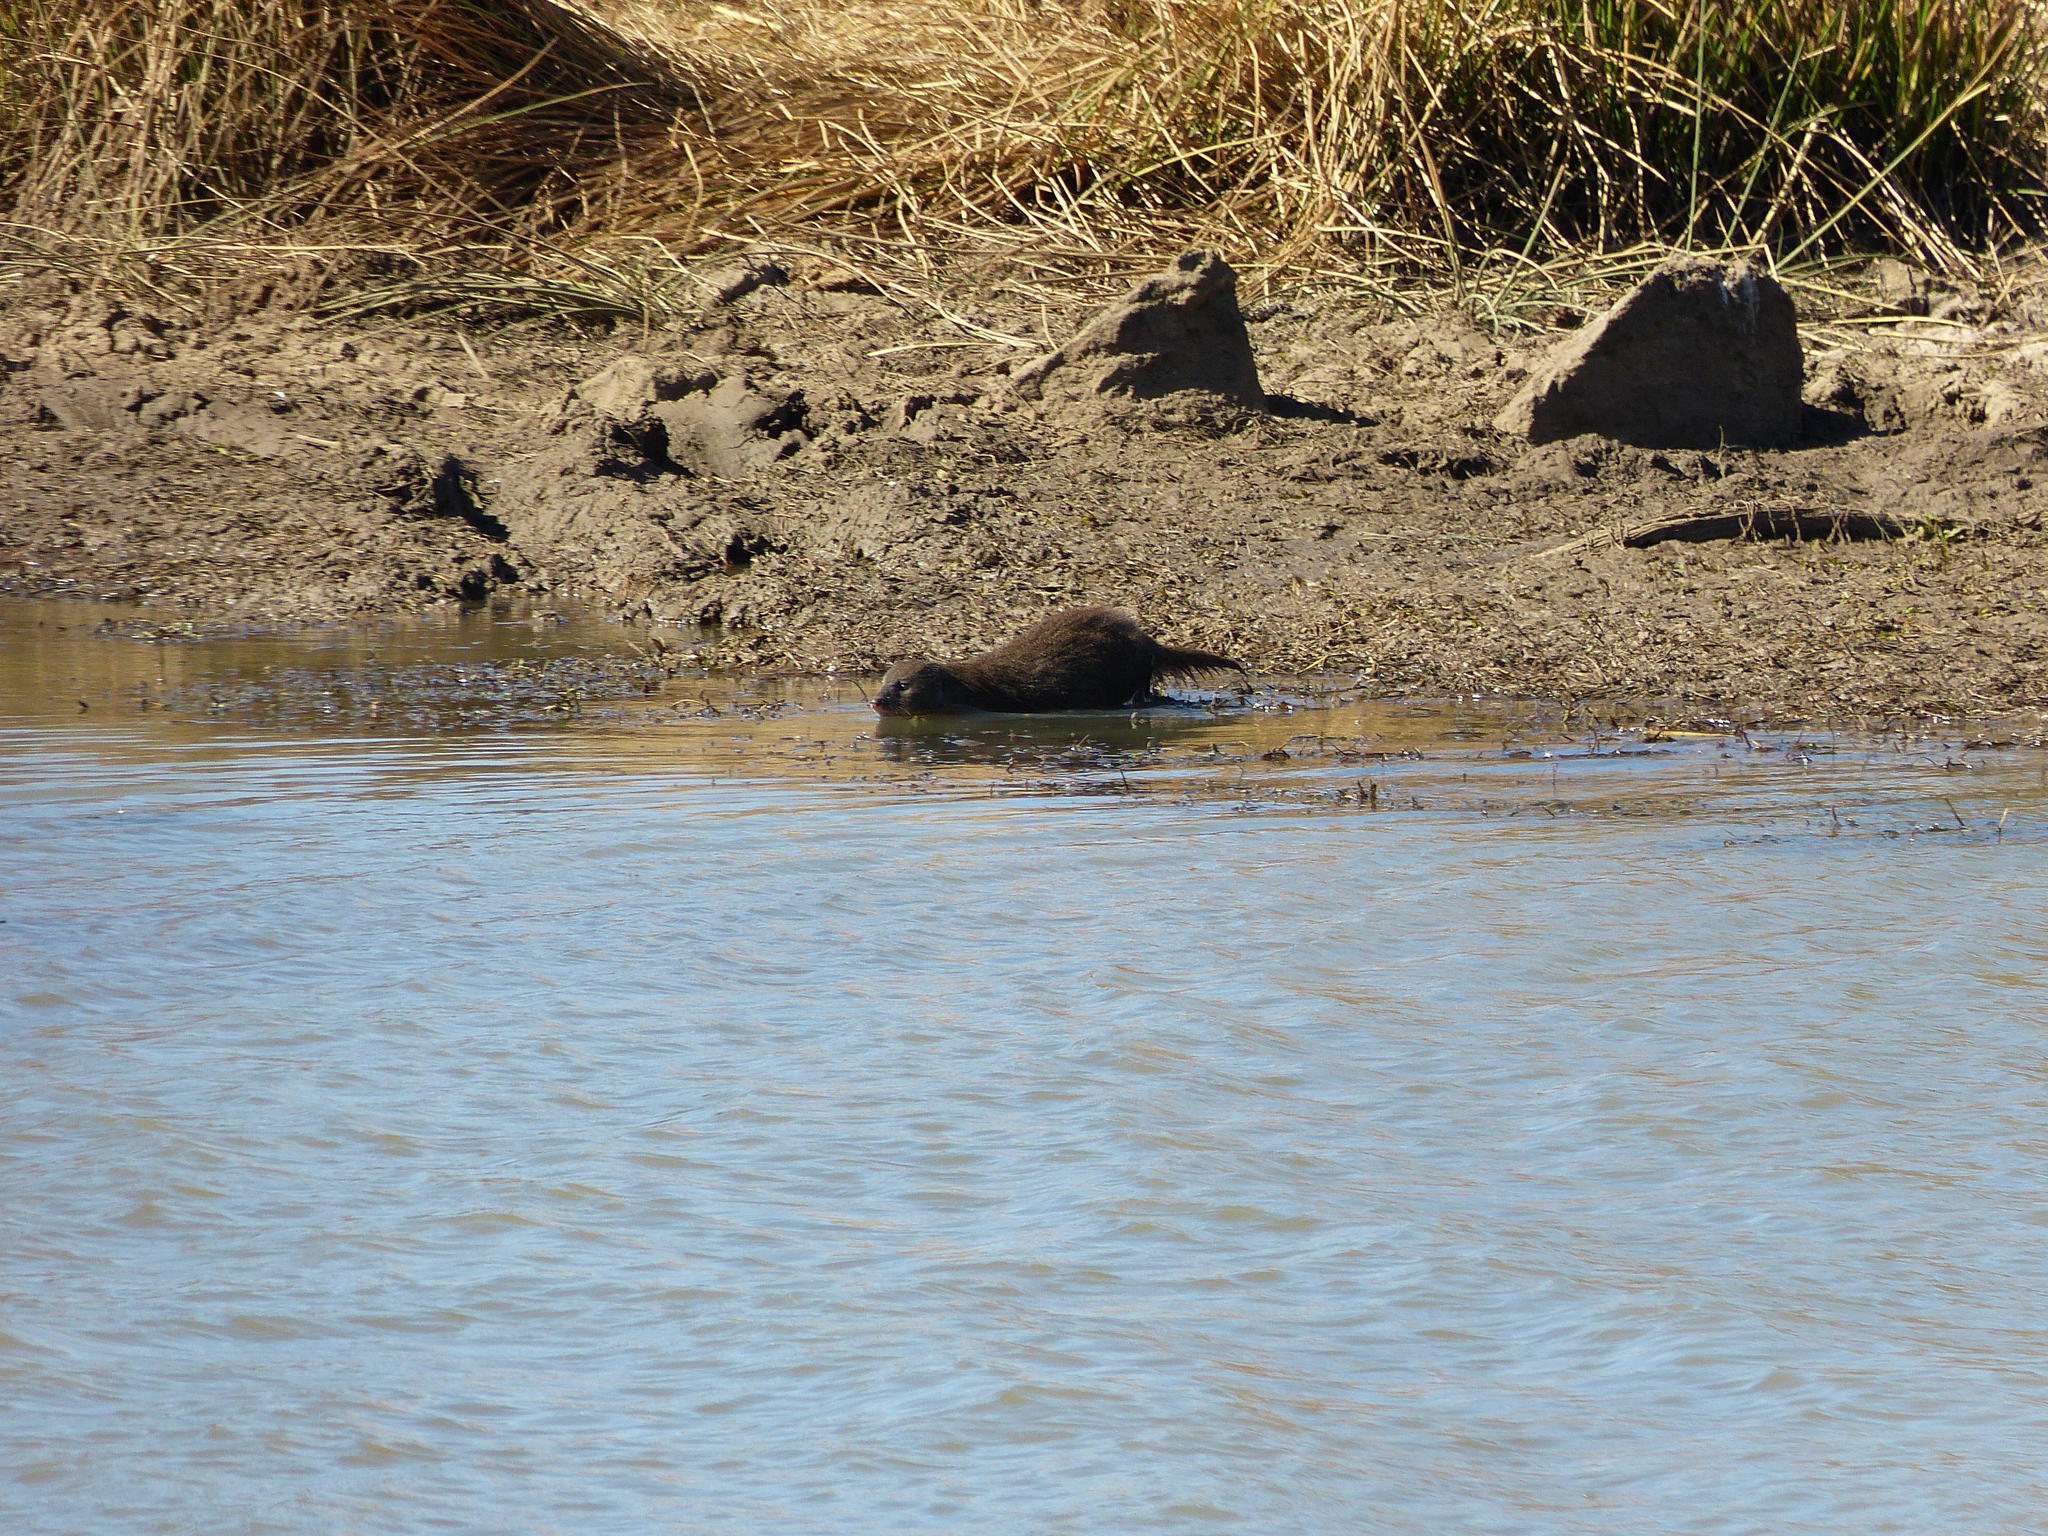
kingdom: Animalia
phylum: Chordata
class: Mammalia
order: Carnivora
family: Herpestidae
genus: Atilax
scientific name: Atilax paludinosus
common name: Marsh mongoose
